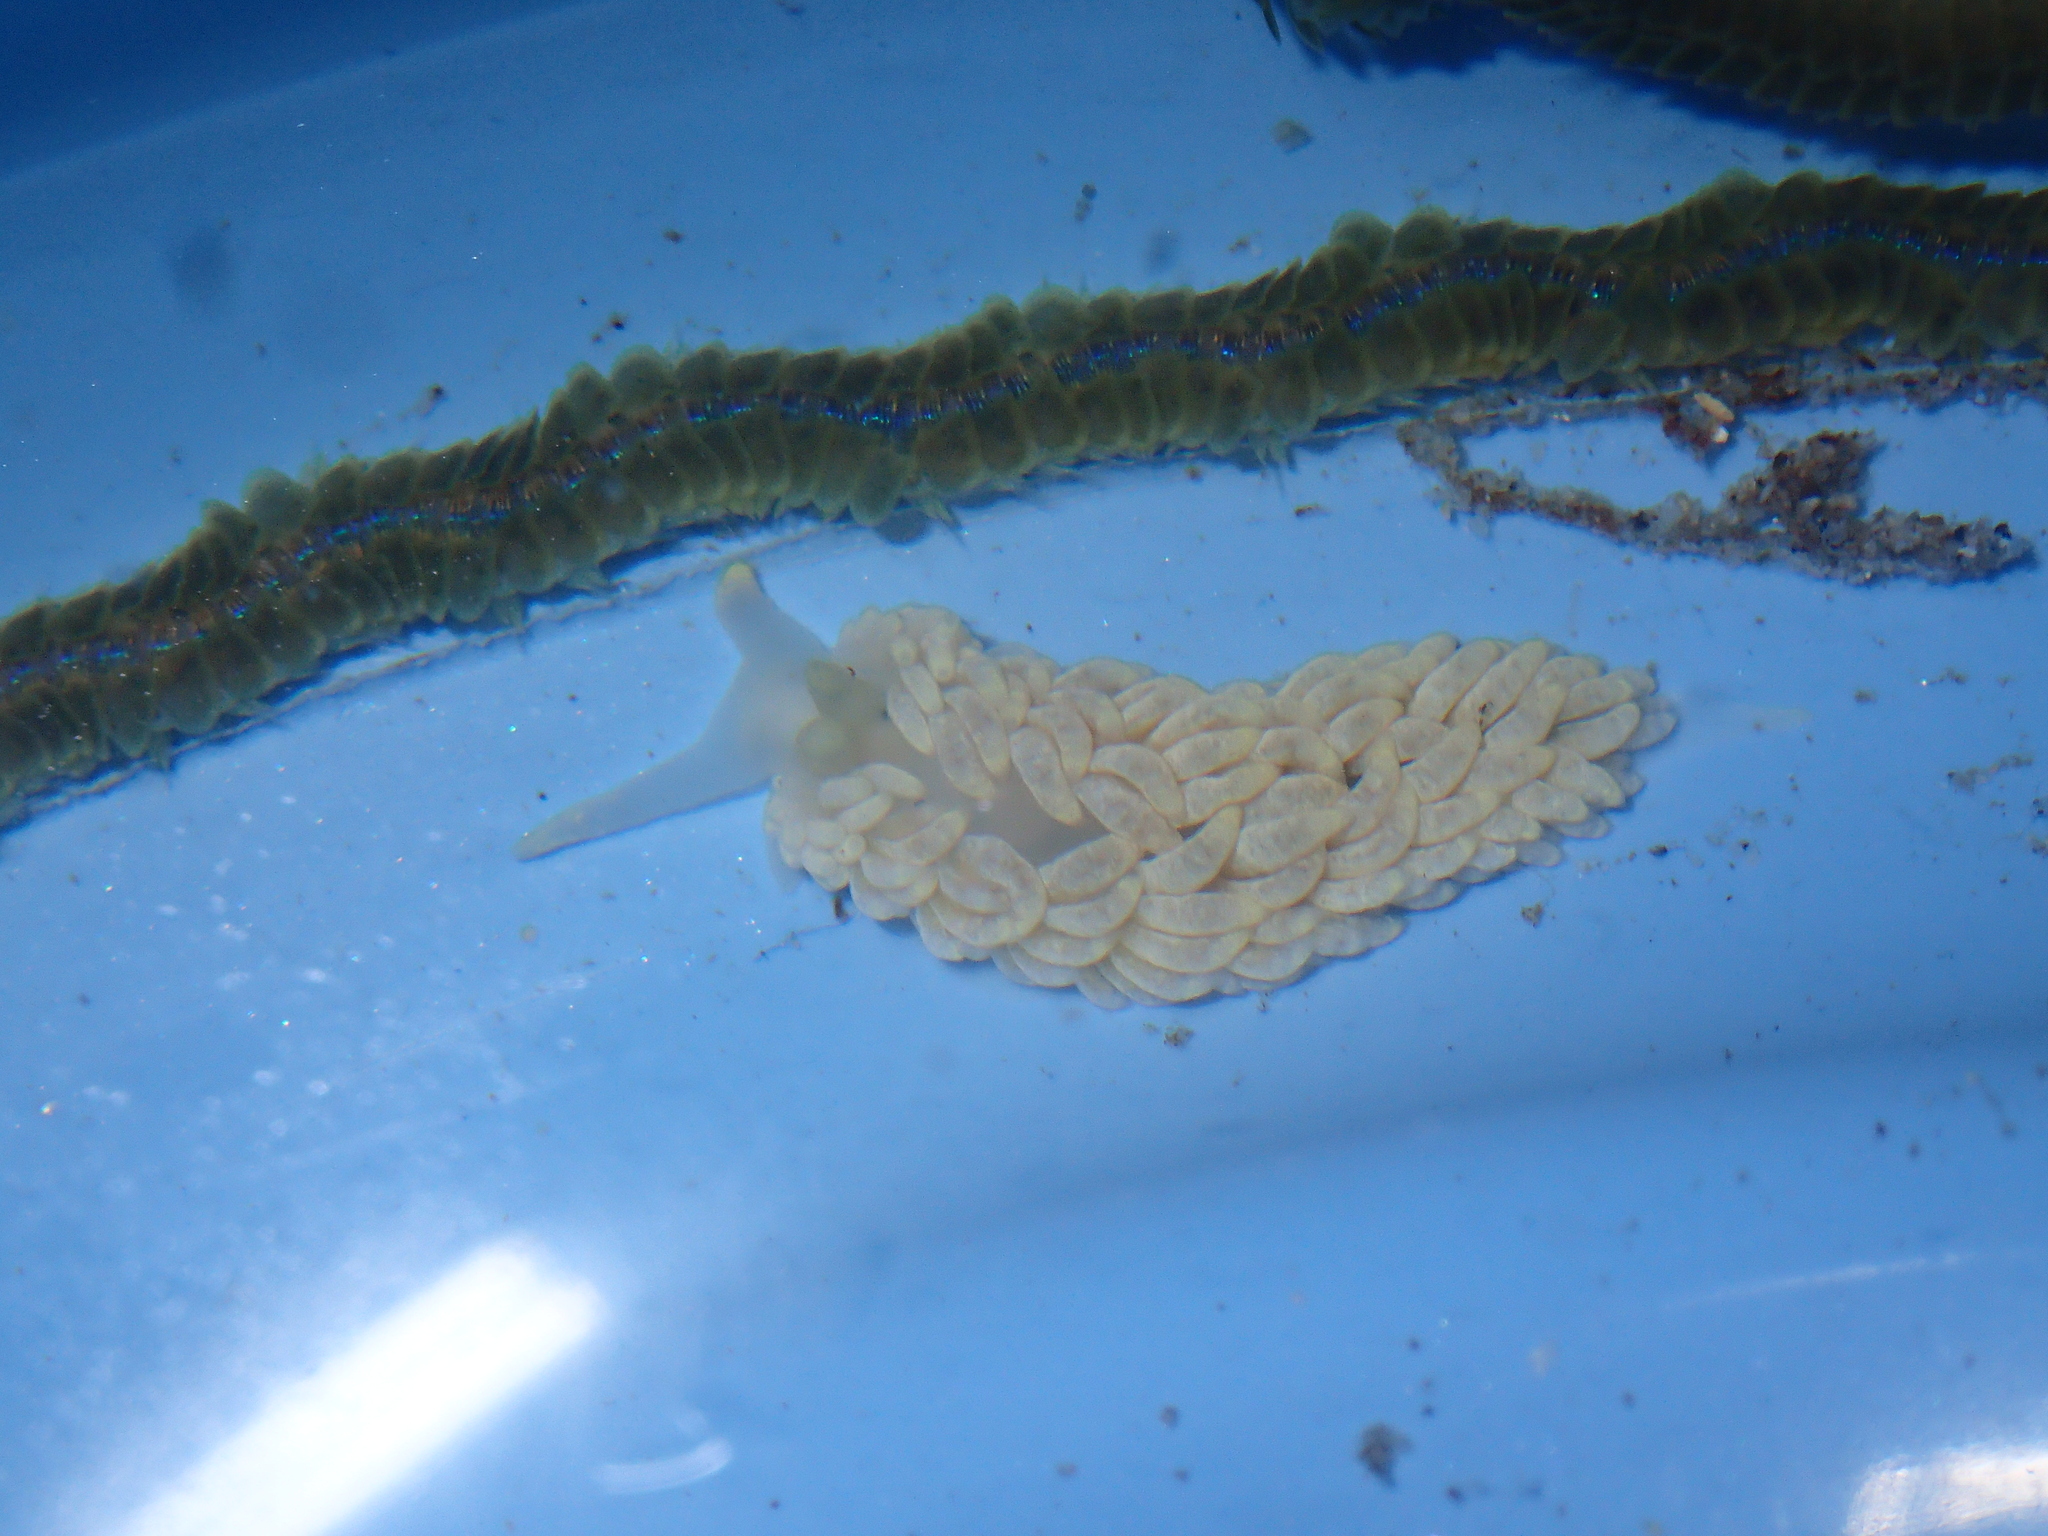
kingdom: Animalia
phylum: Mollusca
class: Gastropoda
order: Nudibranchia
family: Aeolidiidae
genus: Aeolidiella
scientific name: Aeolidiella alderi
